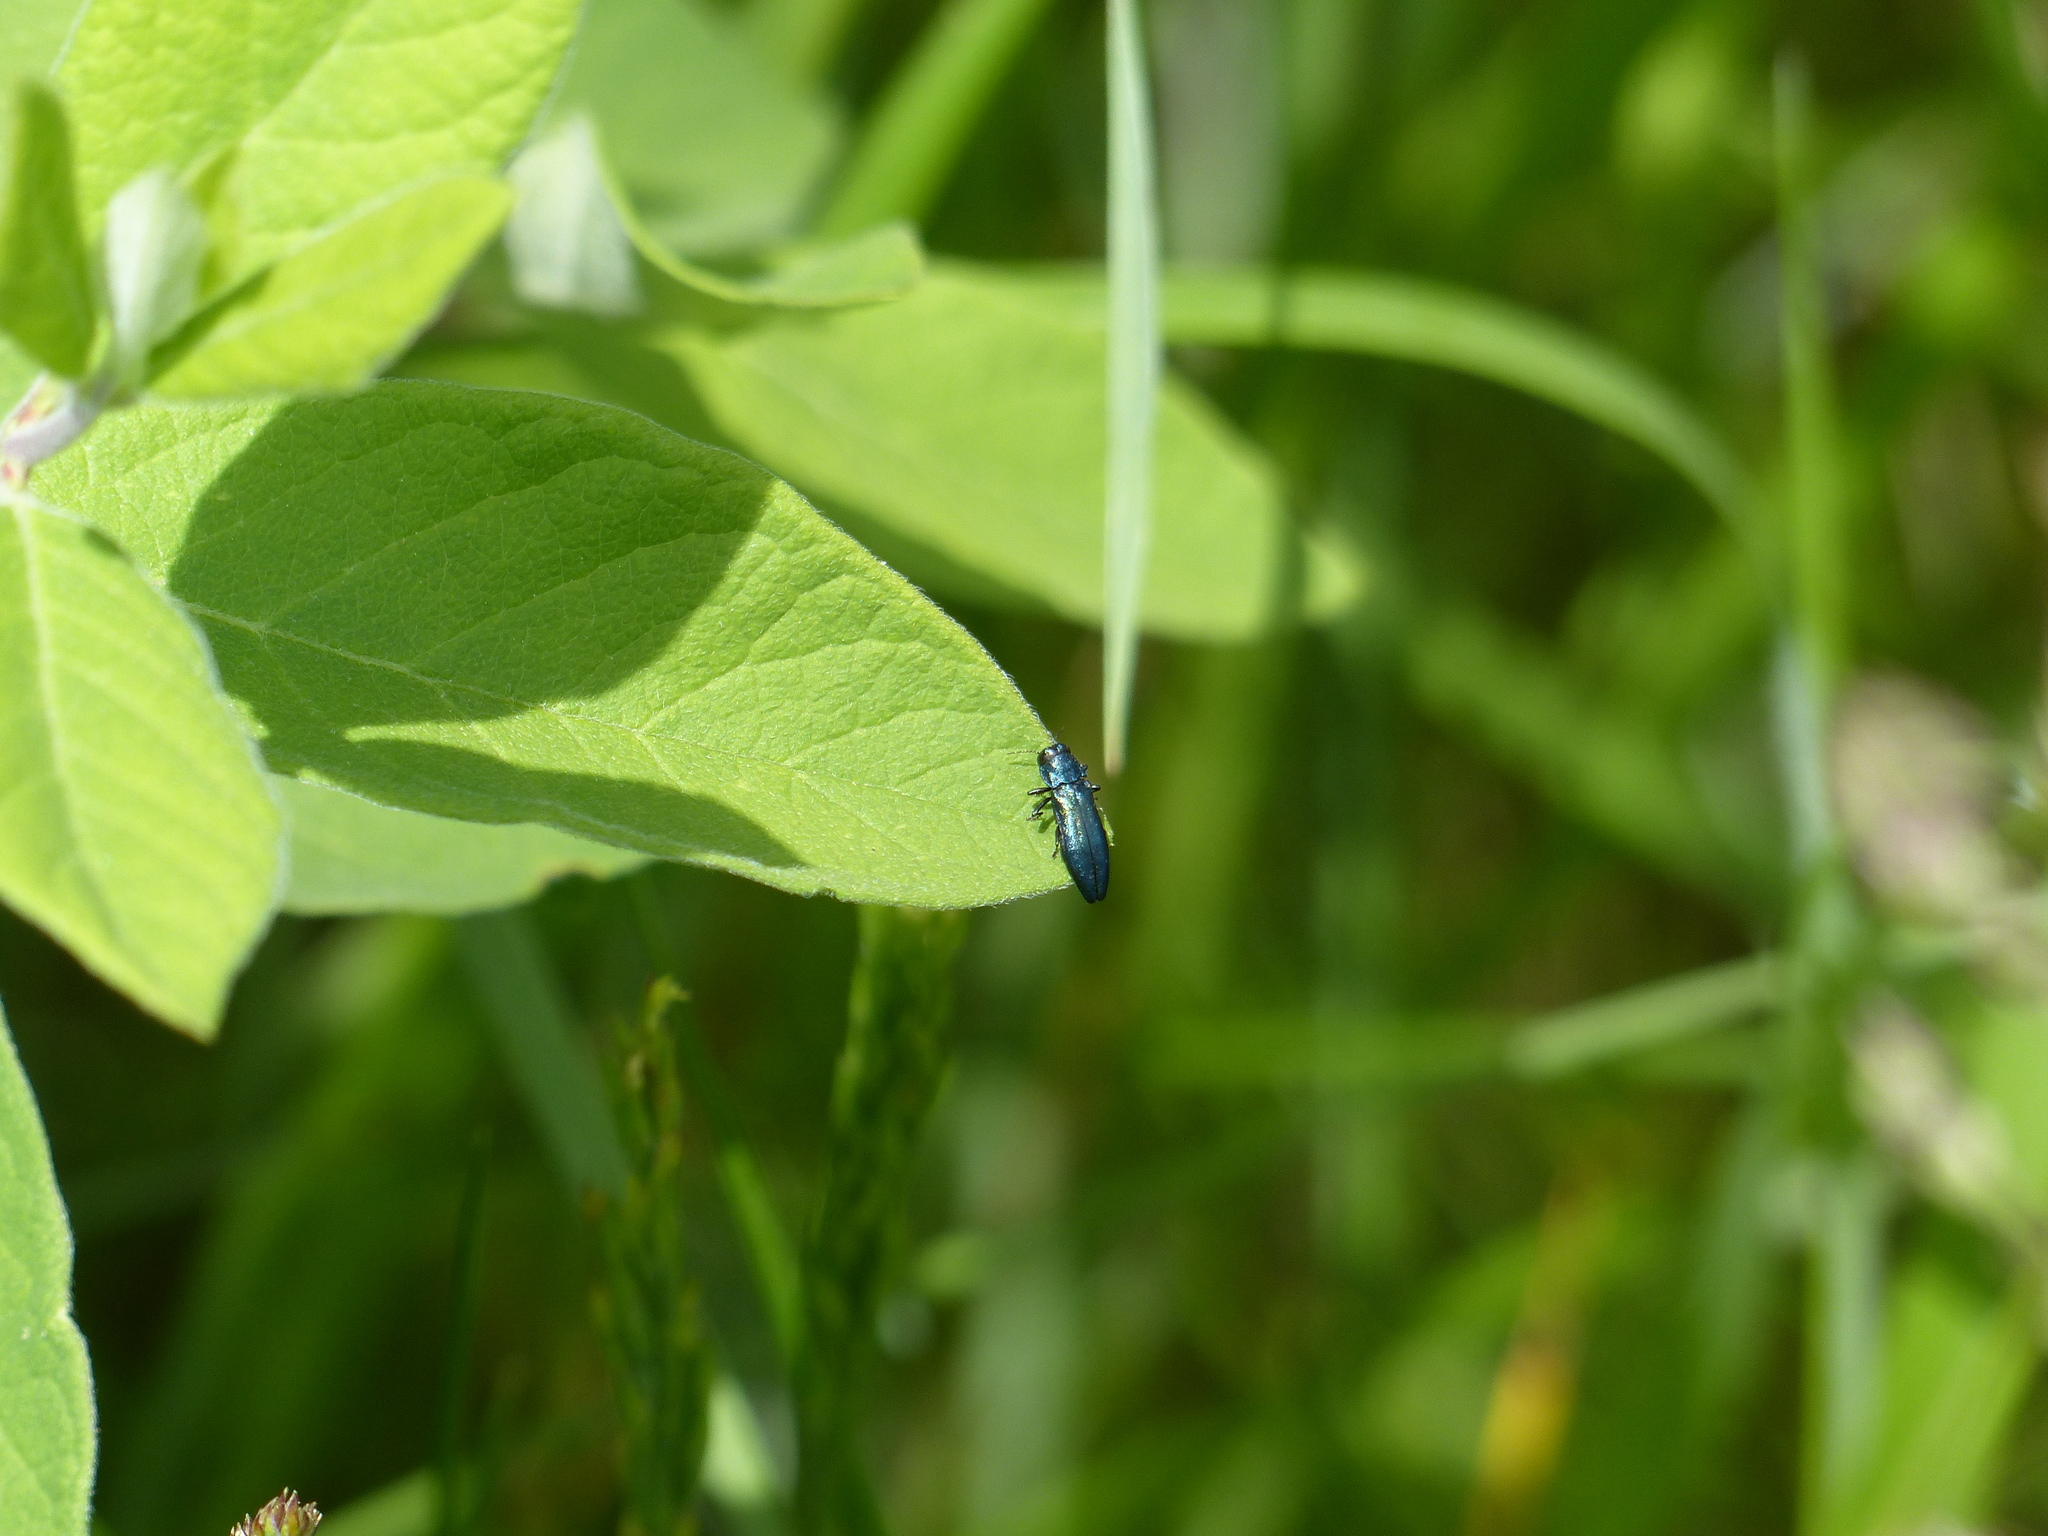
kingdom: Animalia
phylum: Arthropoda
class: Insecta
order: Coleoptera
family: Buprestidae
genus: Agrilus
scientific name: Agrilus cyanescens
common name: Bluish borer beetle
